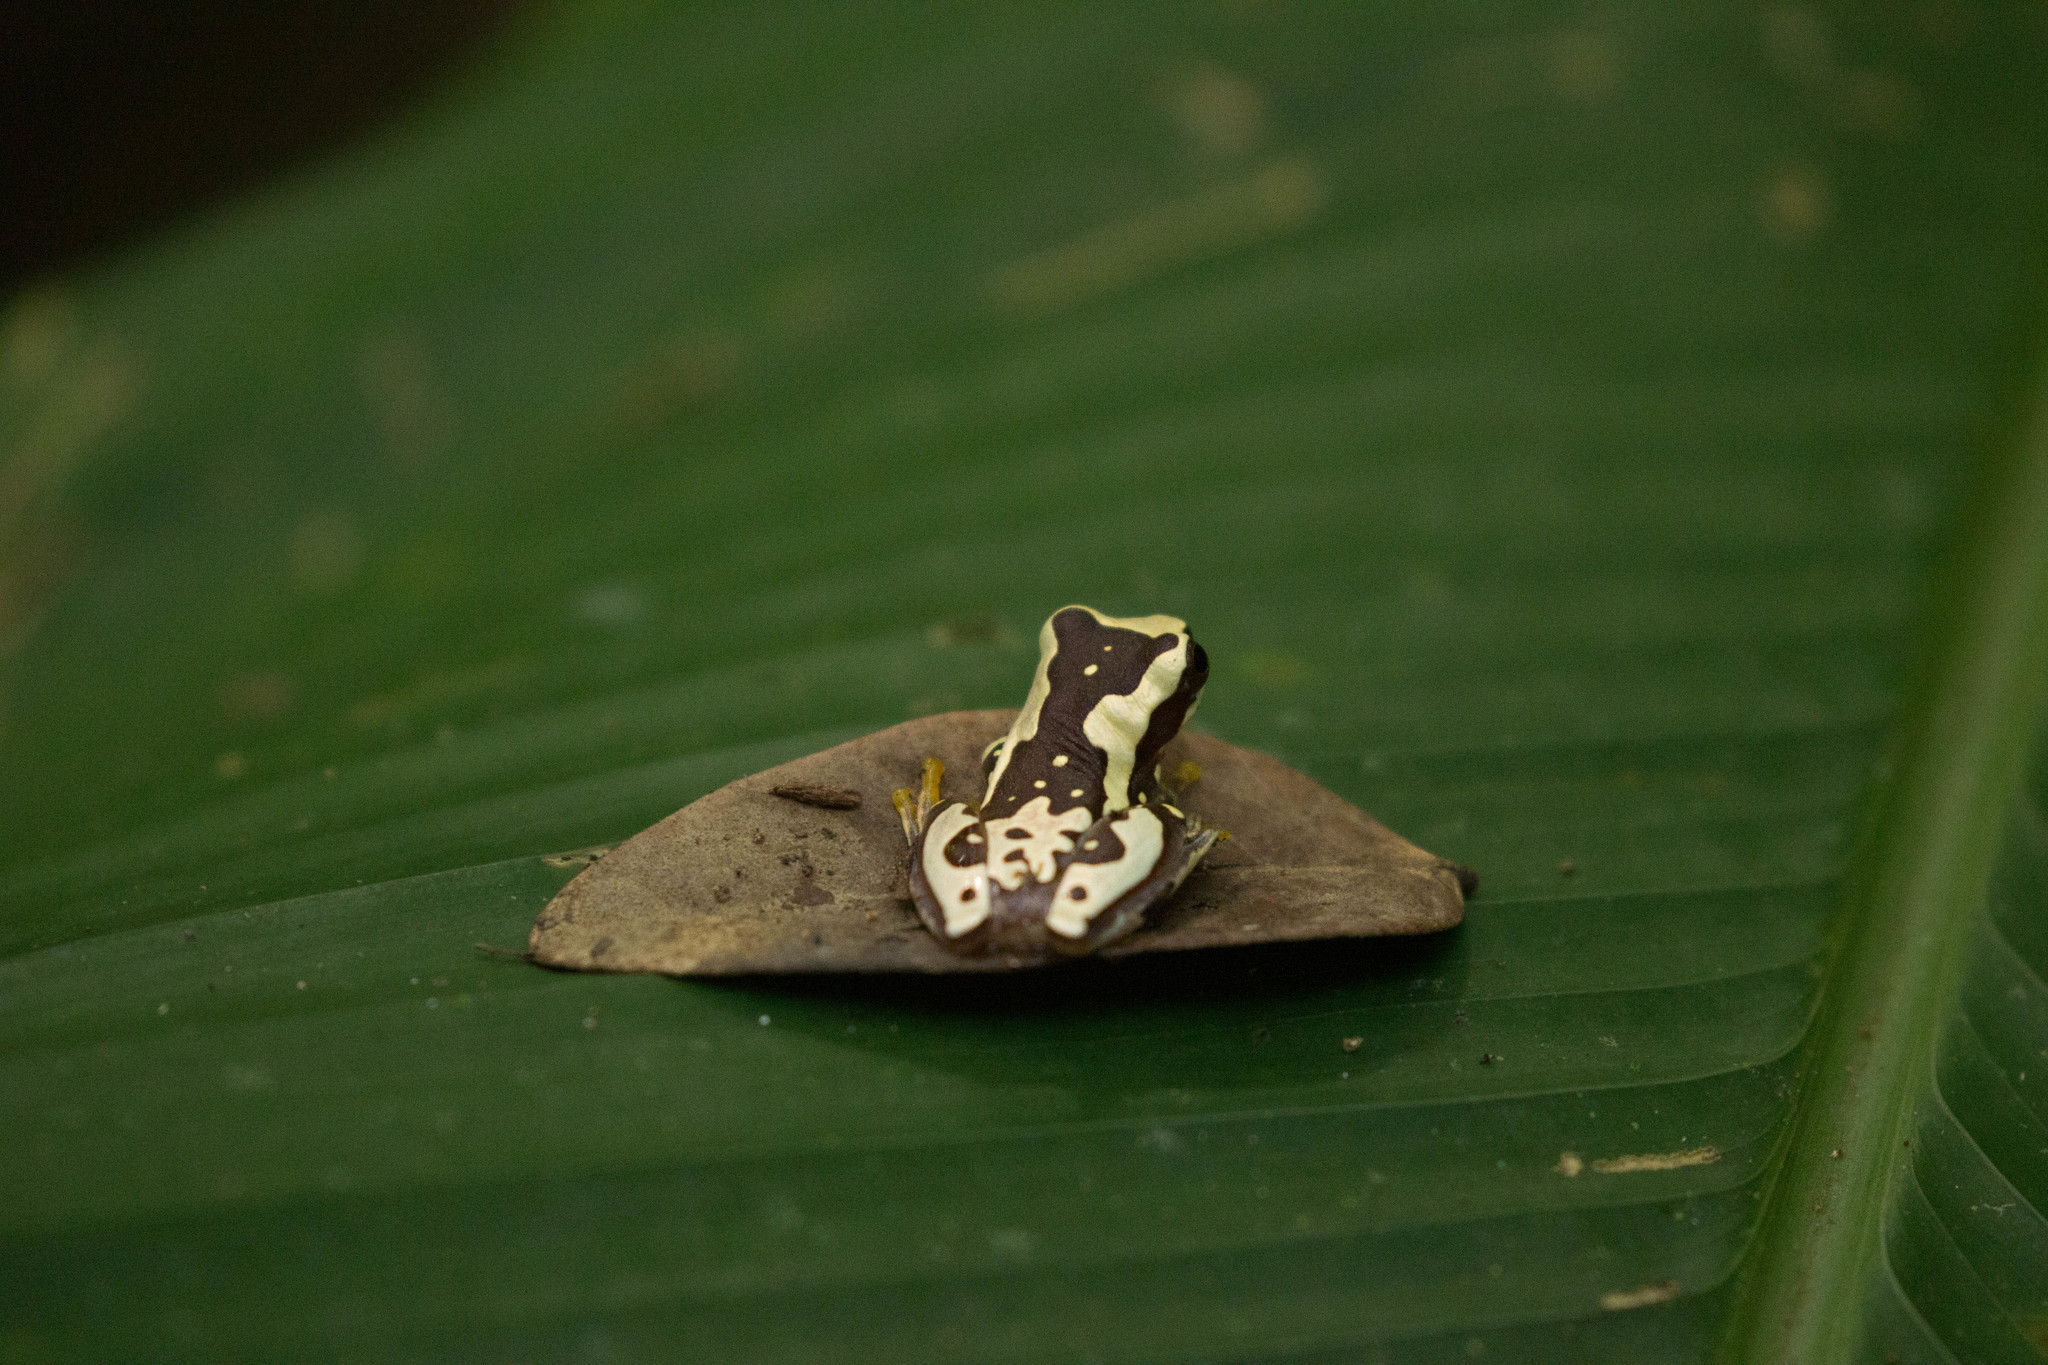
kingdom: Animalia
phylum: Chordata
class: Amphibia
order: Anura
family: Hylidae
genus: Dendropsophus
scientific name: Dendropsophus ebraccatus
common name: Hourglass treefrog
